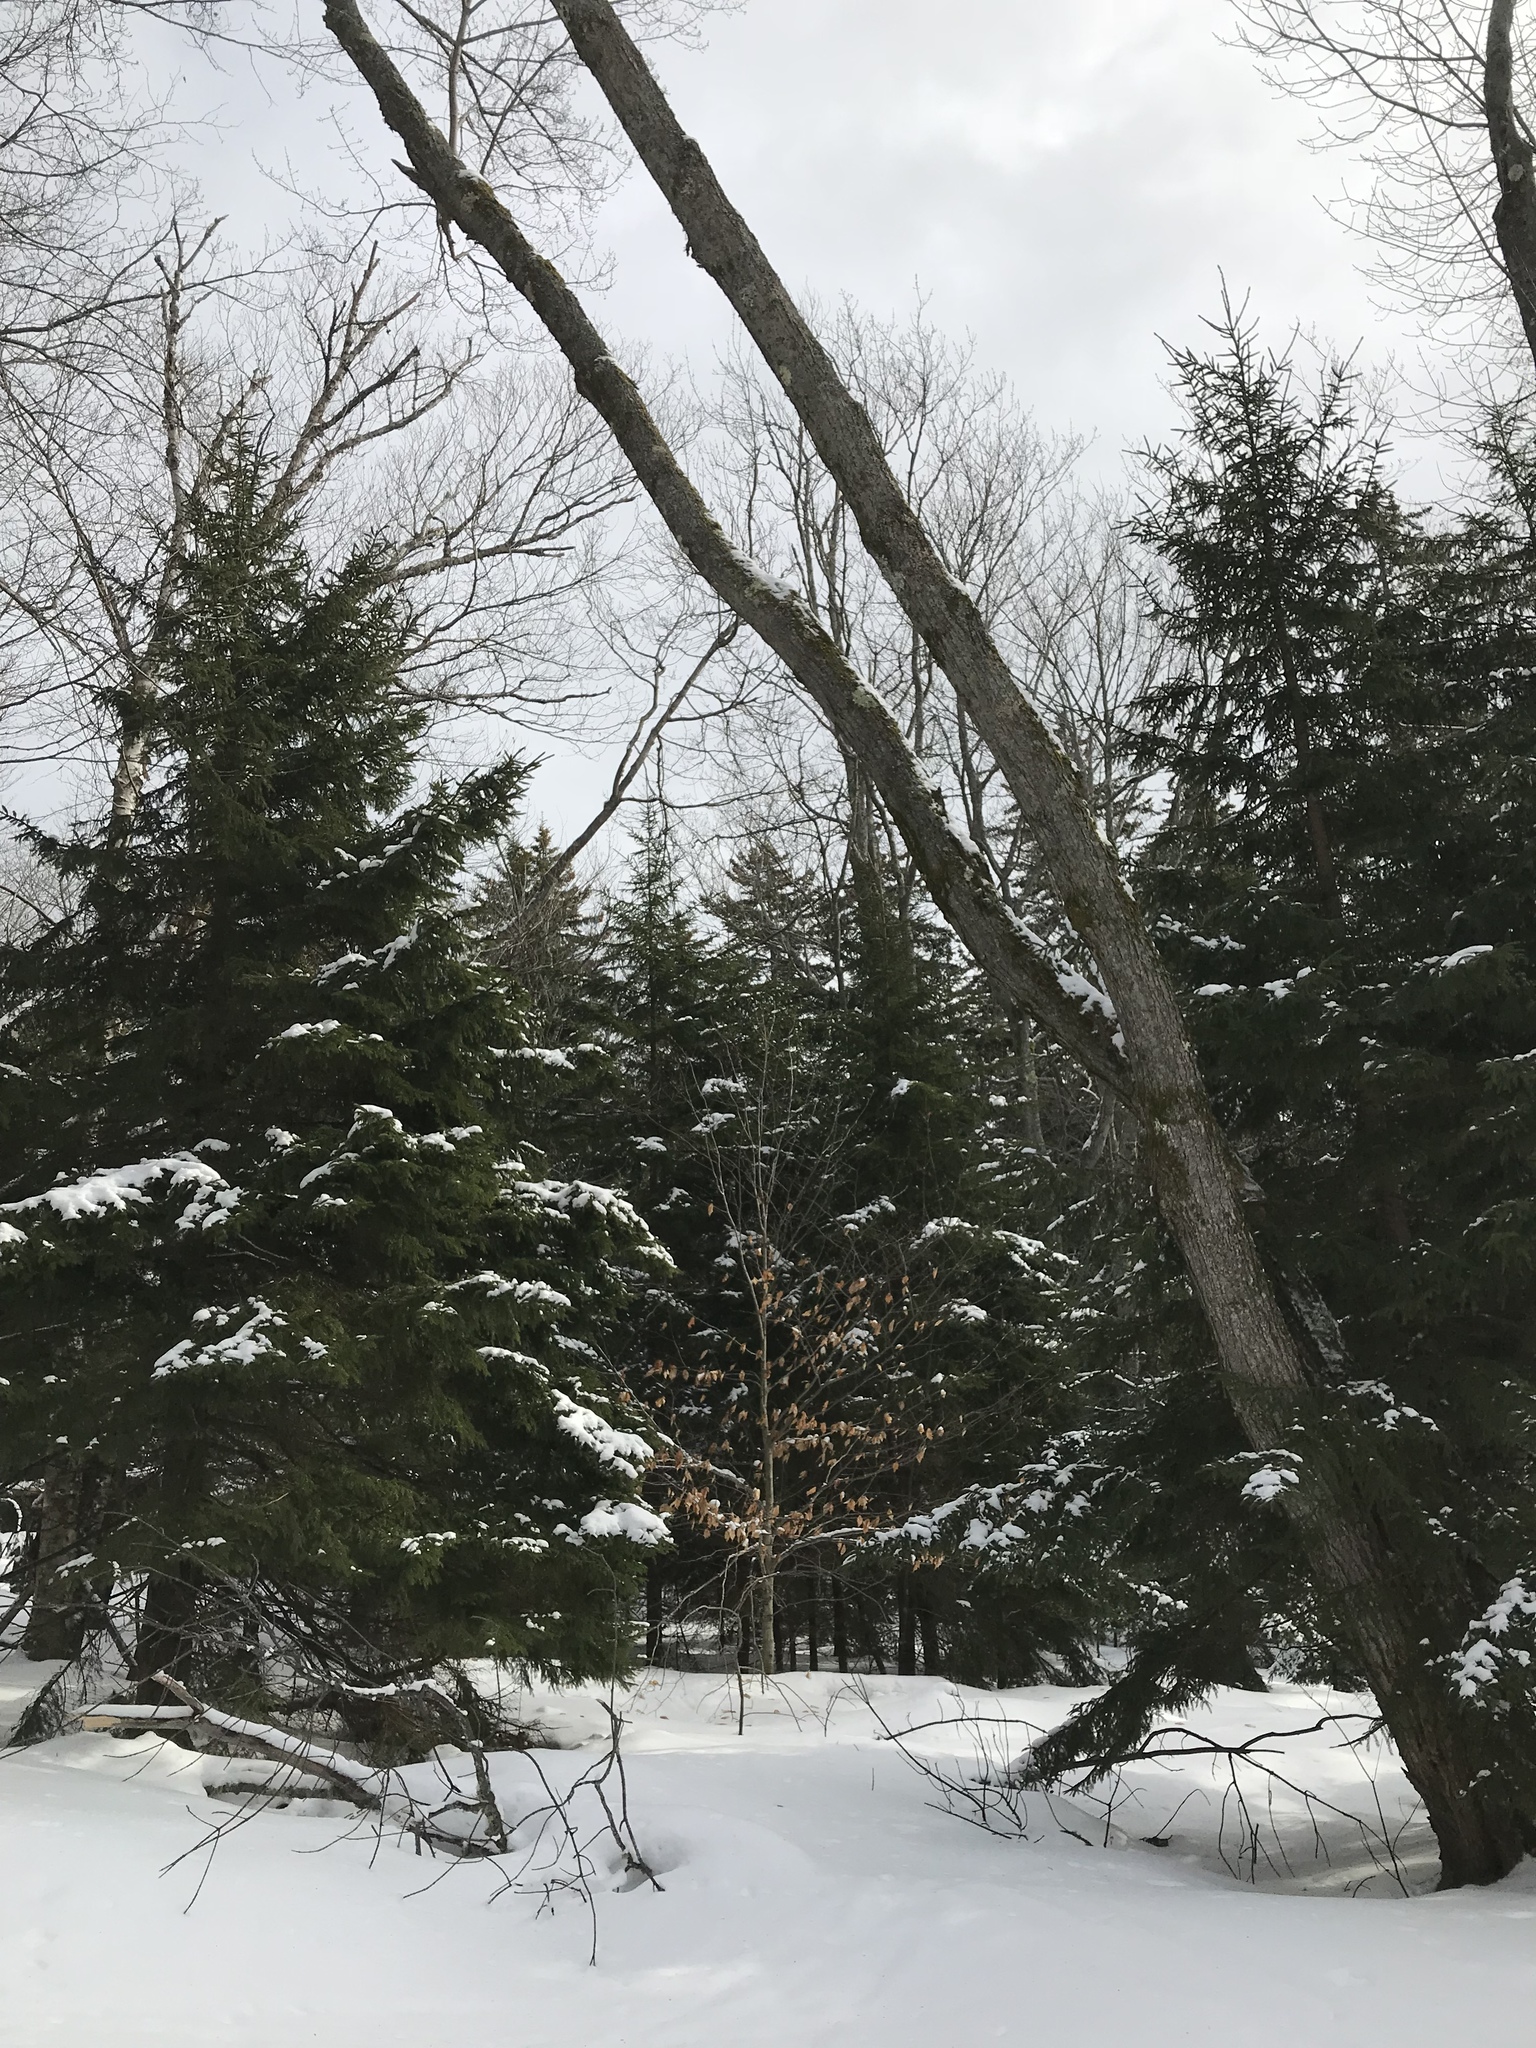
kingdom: Plantae
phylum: Tracheophyta
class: Magnoliopsida
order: Fagales
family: Fagaceae
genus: Fagus
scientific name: Fagus grandifolia
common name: American beech
